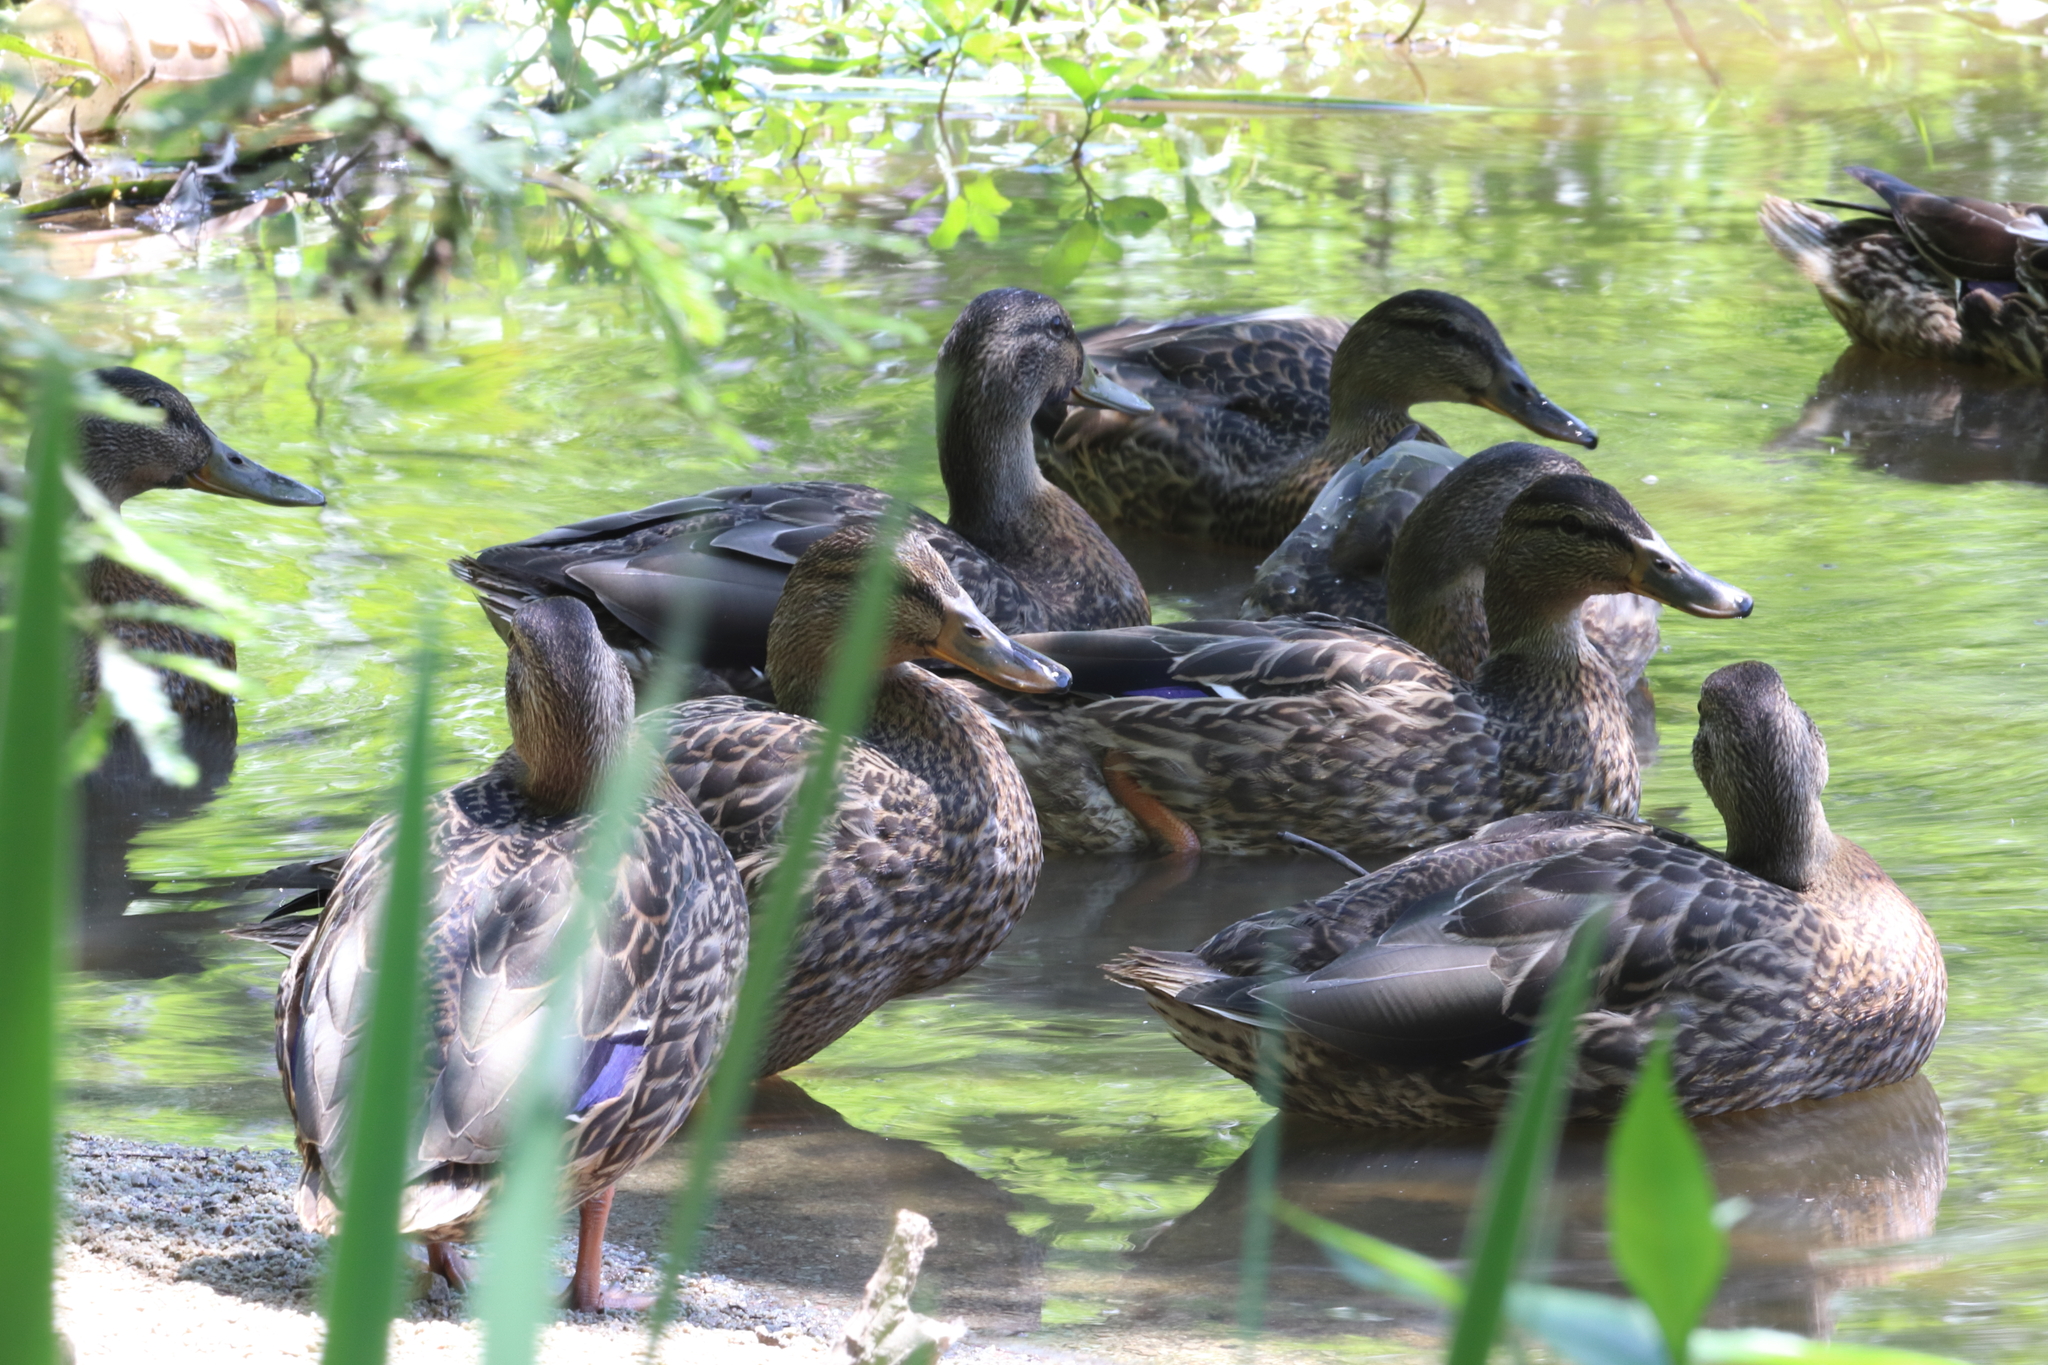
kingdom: Animalia
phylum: Chordata
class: Aves
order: Anseriformes
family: Anatidae
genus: Anas
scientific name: Anas platyrhynchos
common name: Mallard
